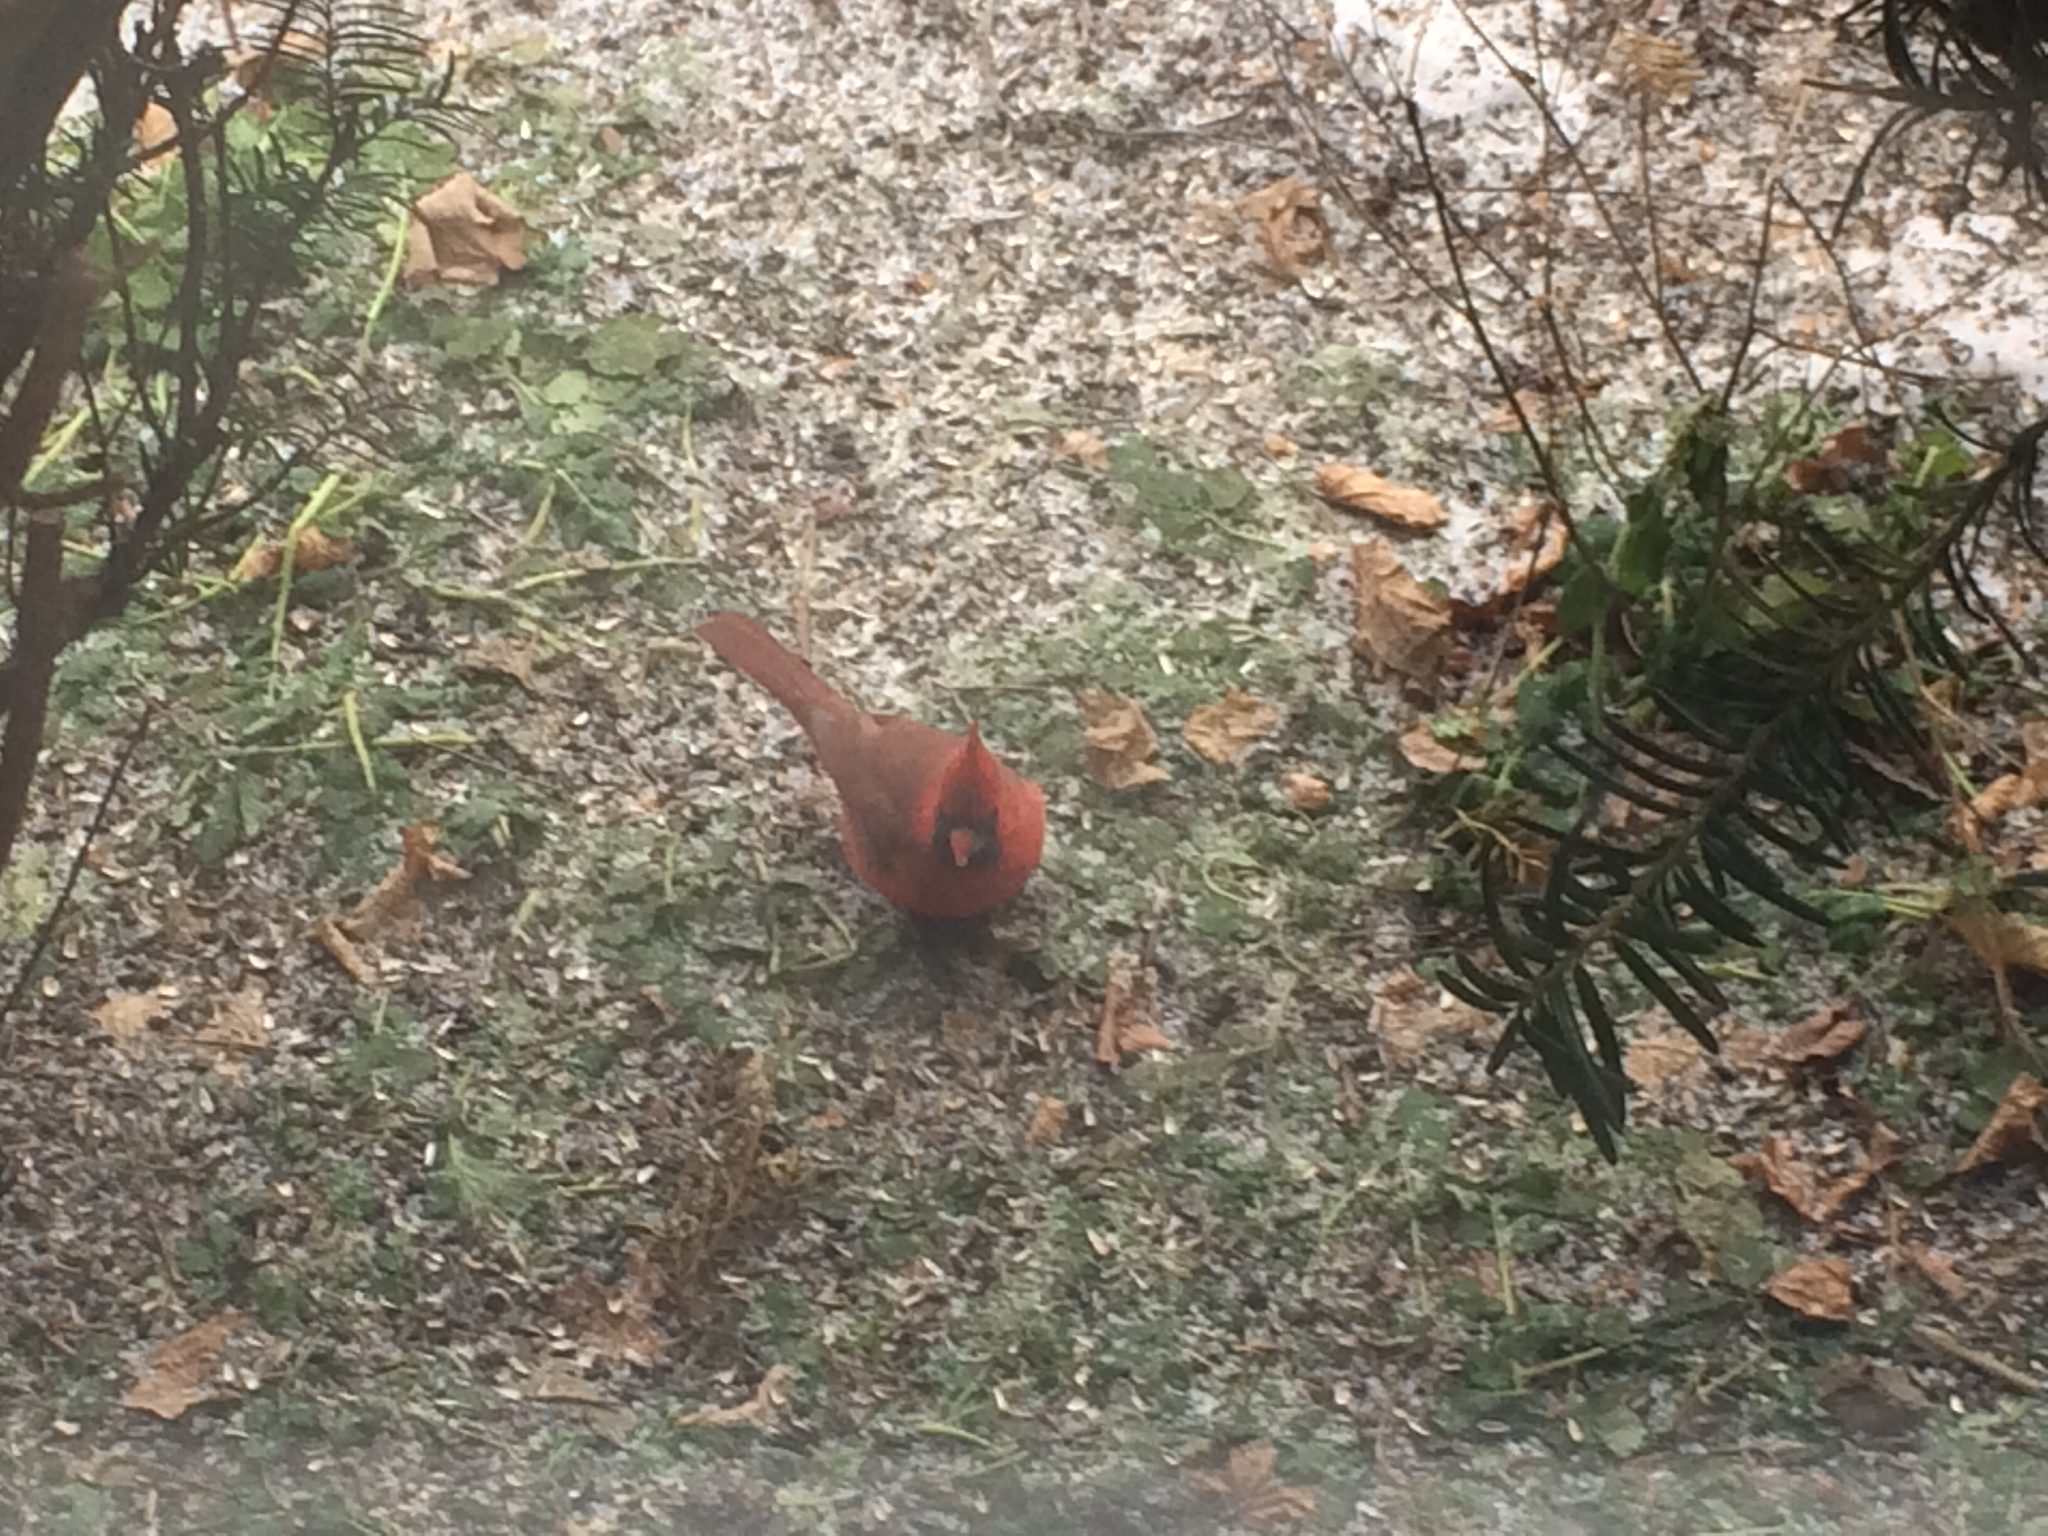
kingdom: Animalia
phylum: Chordata
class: Aves
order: Passeriformes
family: Cardinalidae
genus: Cardinalis
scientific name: Cardinalis cardinalis
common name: Northern cardinal
